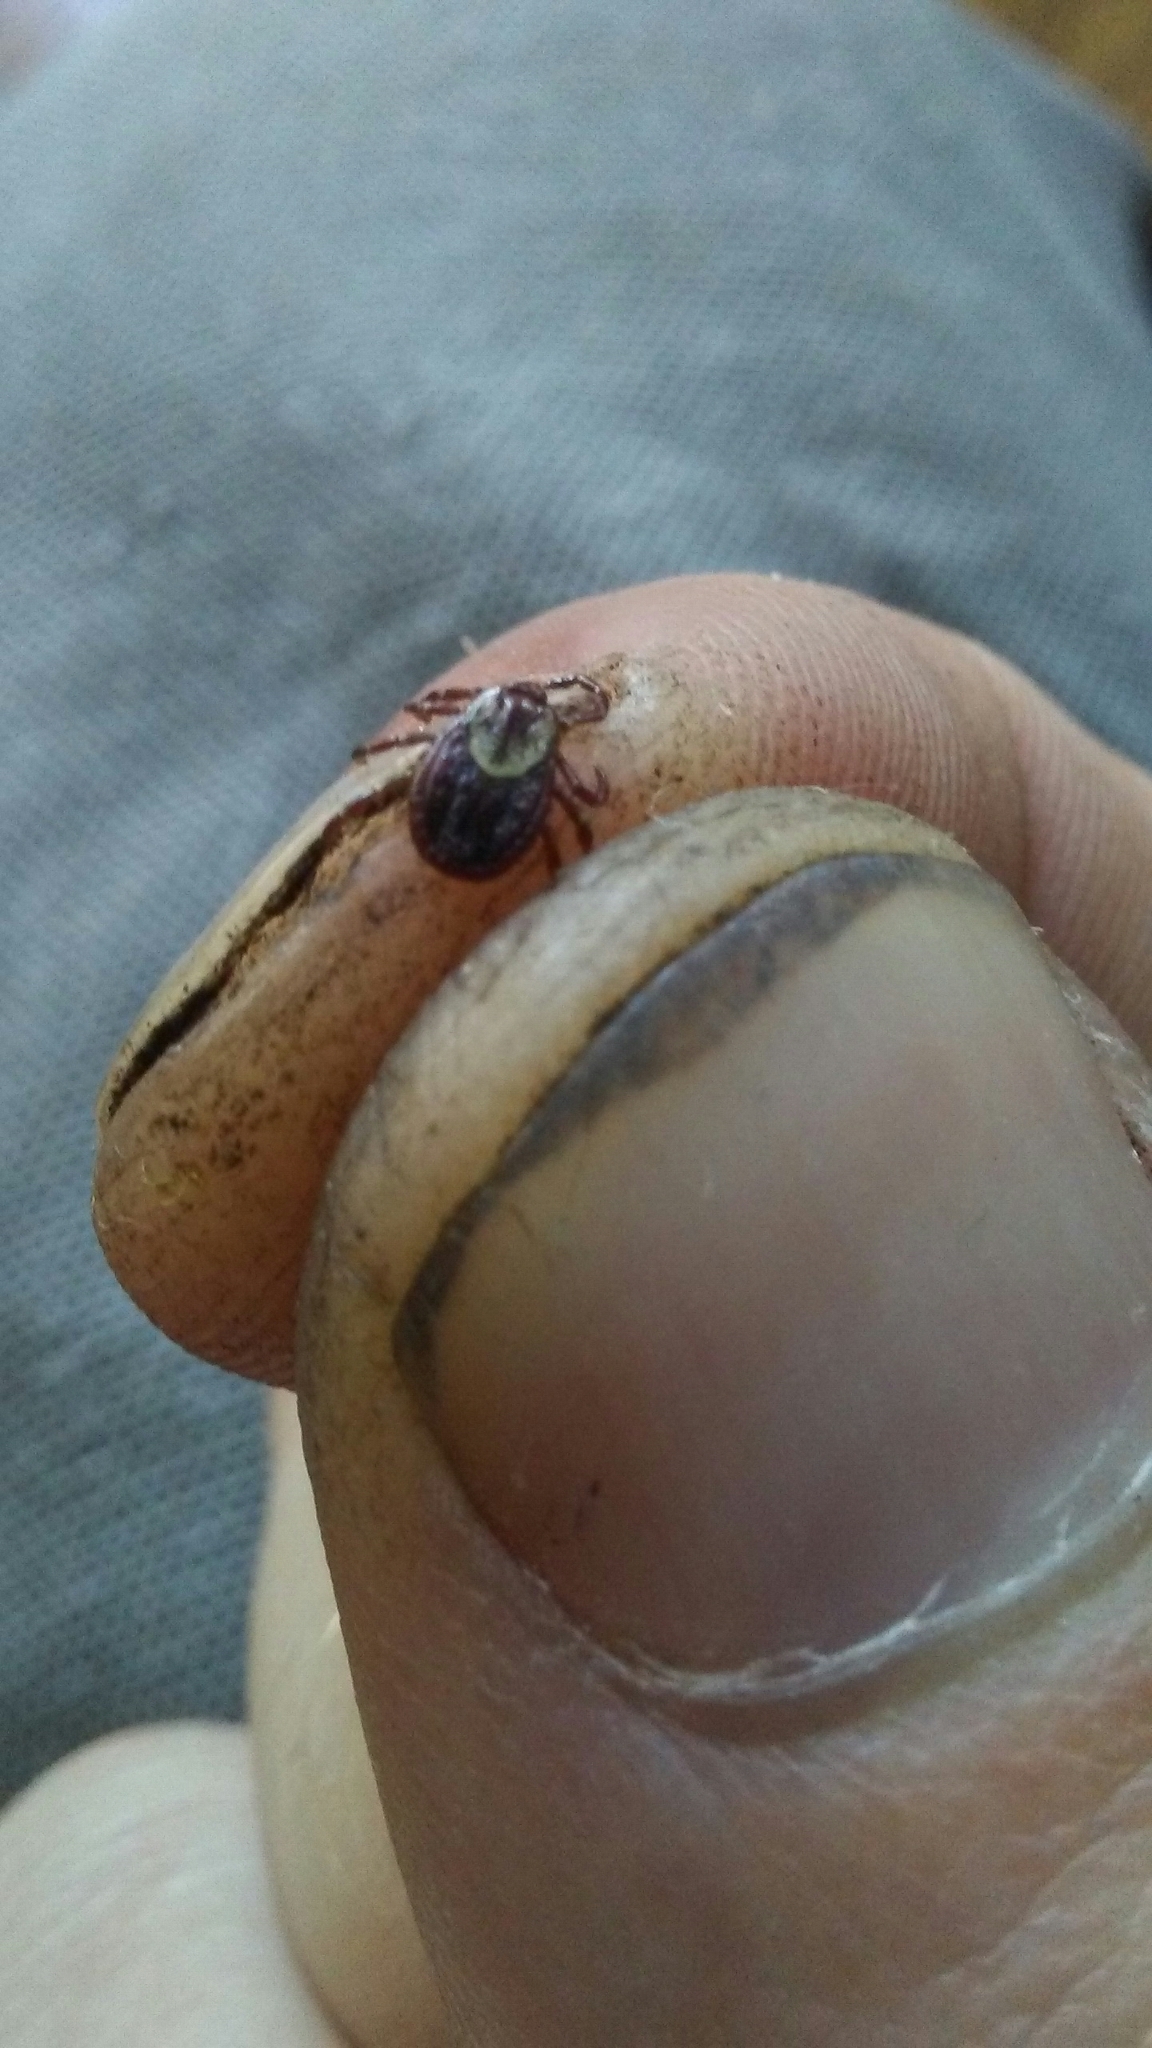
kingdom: Animalia
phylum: Arthropoda
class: Arachnida
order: Ixodida
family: Ixodidae
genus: Dermacentor
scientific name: Dermacentor variabilis
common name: American dog tick
